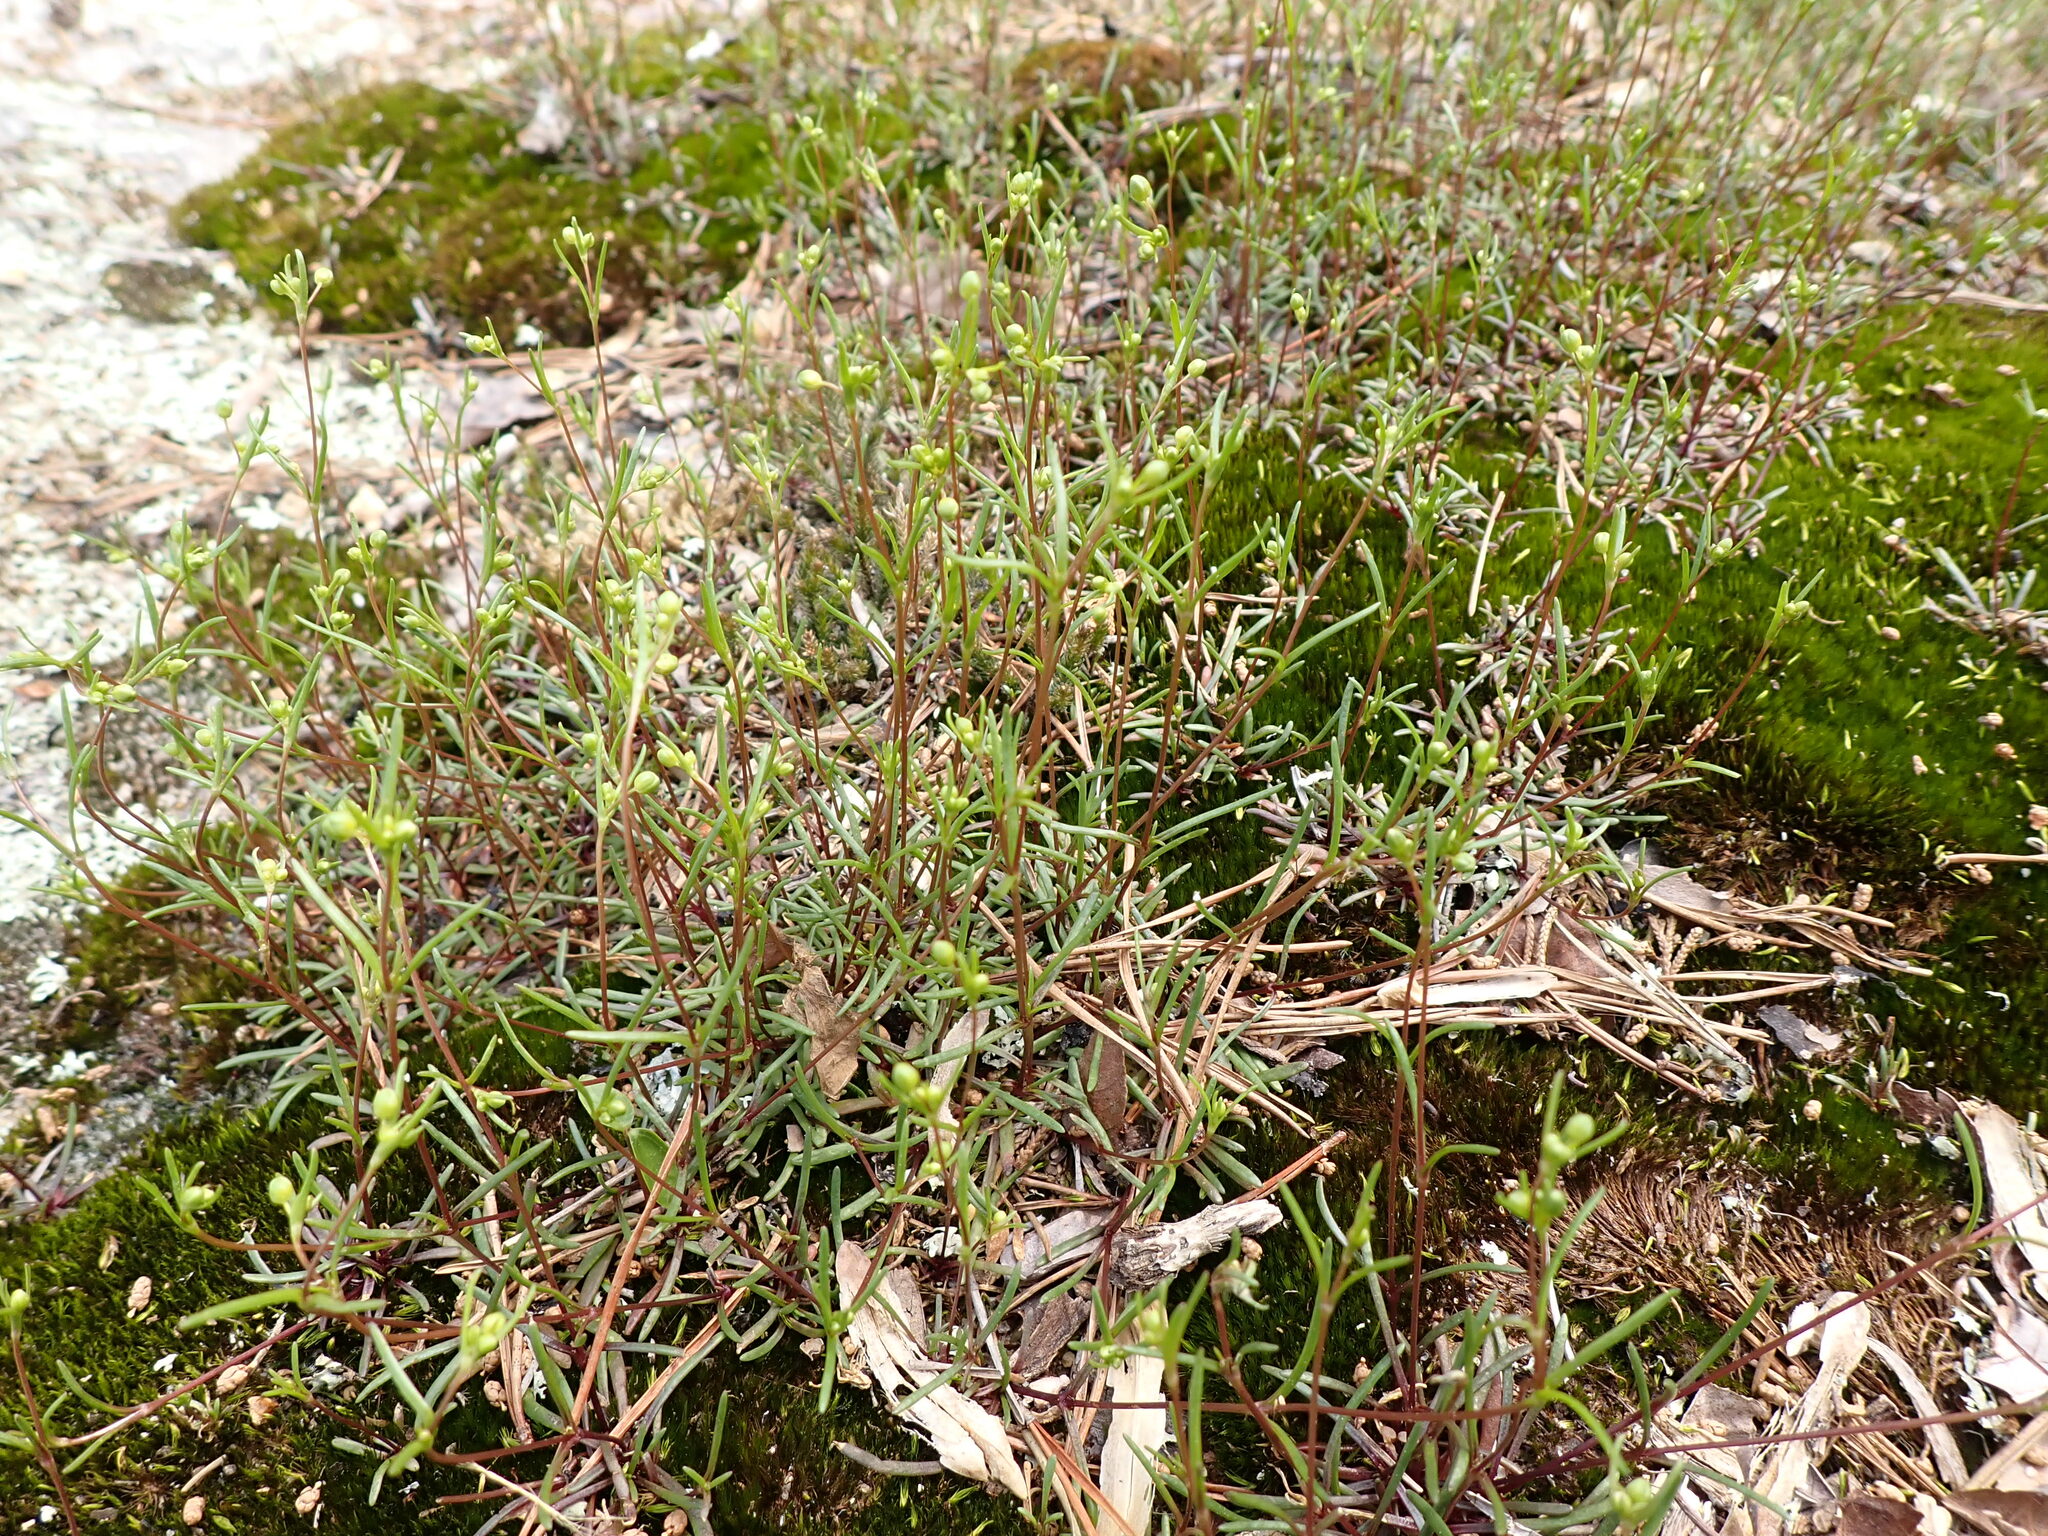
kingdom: Plantae
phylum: Tracheophyta
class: Magnoliopsida
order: Caryophyllales
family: Caryophyllaceae
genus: Geocarpon
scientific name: Geocarpon glabrum
